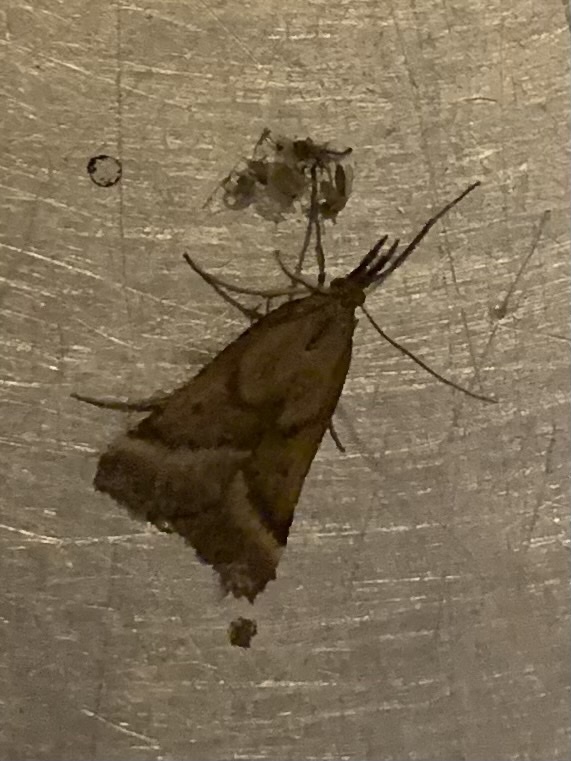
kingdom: Animalia
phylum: Arthropoda
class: Insecta
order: Lepidoptera
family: Pyralidae
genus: Synaphe
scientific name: Synaphe punctalis
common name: Long-legged tabby
